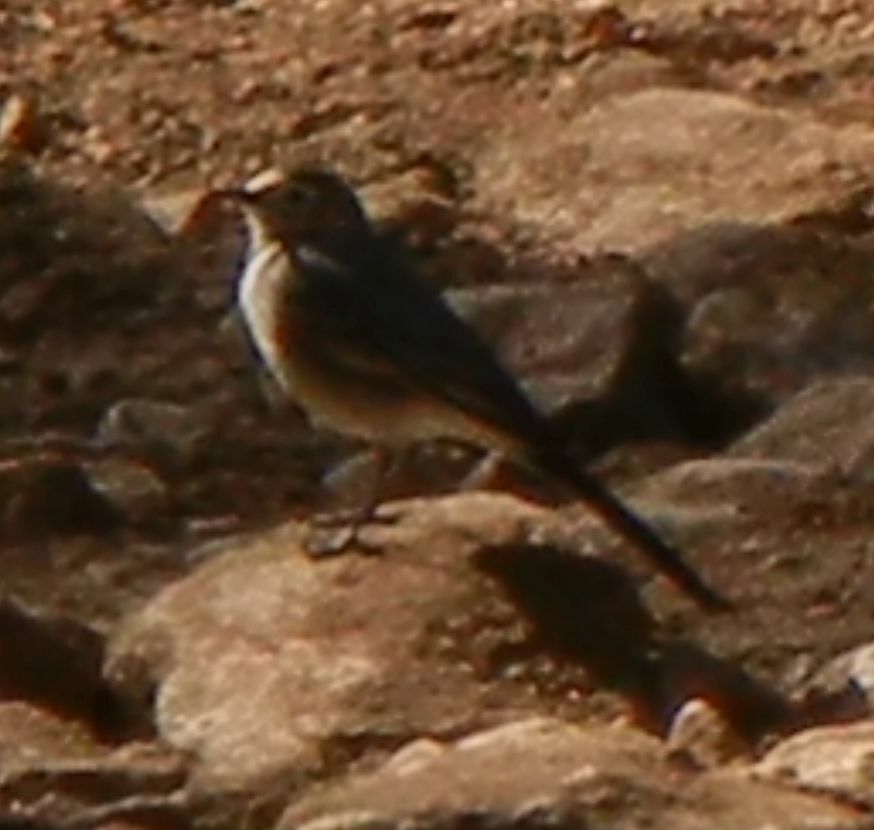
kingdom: Animalia
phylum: Chordata
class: Aves
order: Passeriformes
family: Motacillidae
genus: Motacilla
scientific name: Motacilla alba
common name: White wagtail
